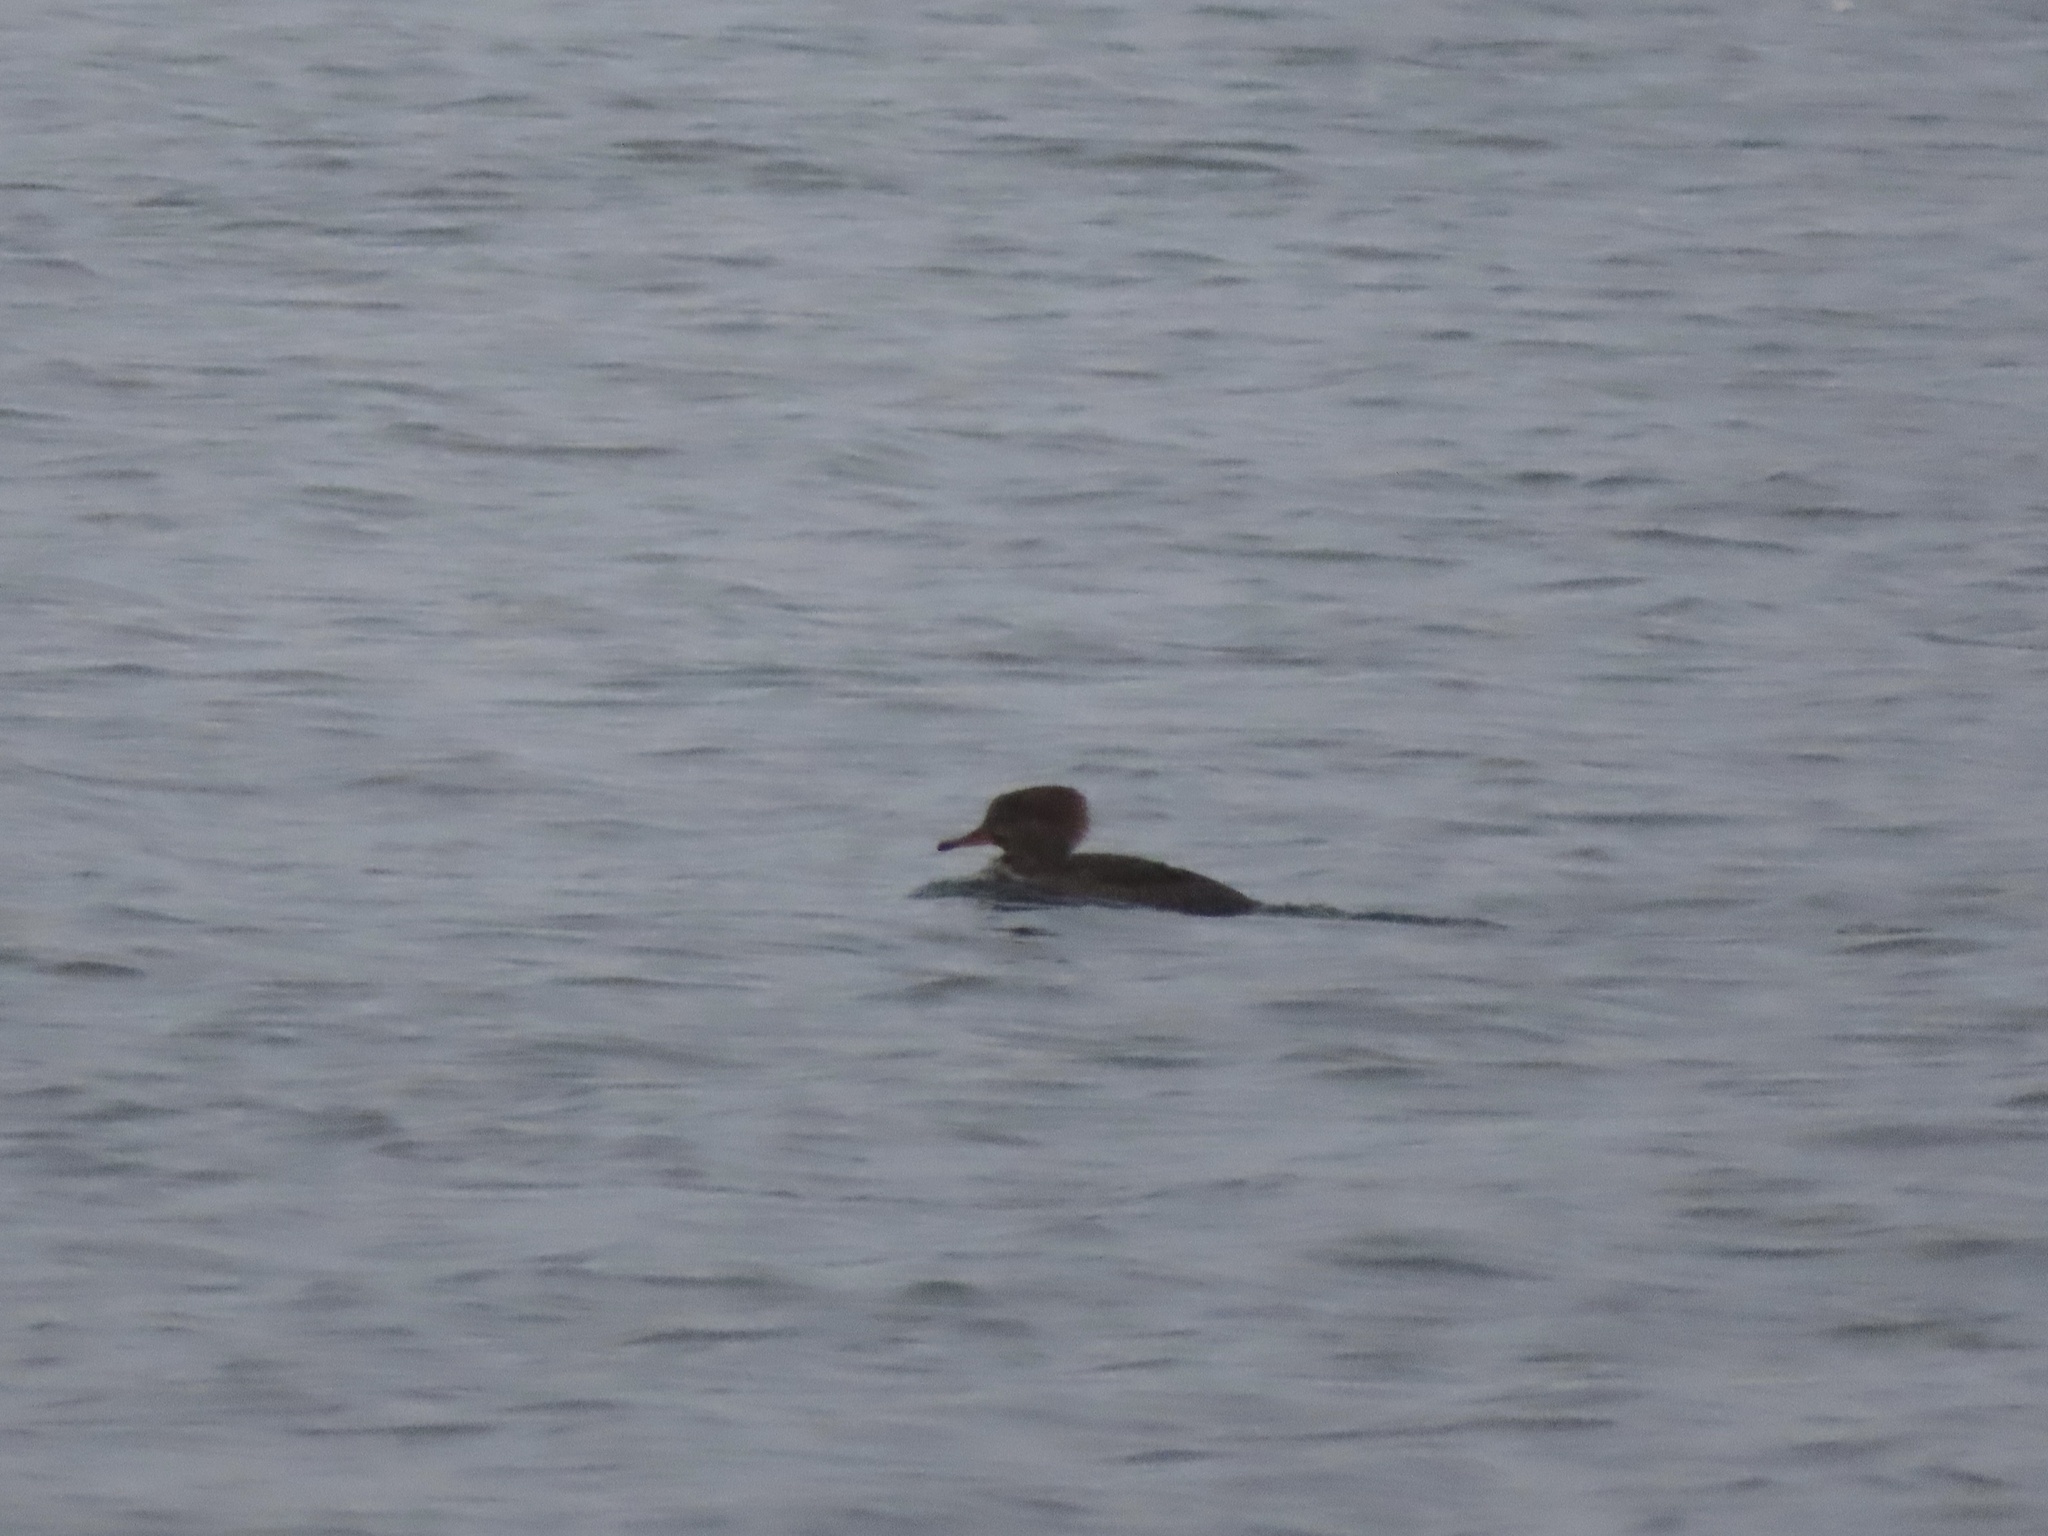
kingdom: Animalia
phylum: Chordata
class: Aves
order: Anseriformes
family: Anatidae
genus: Lophodytes
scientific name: Lophodytes cucullatus
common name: Hooded merganser
